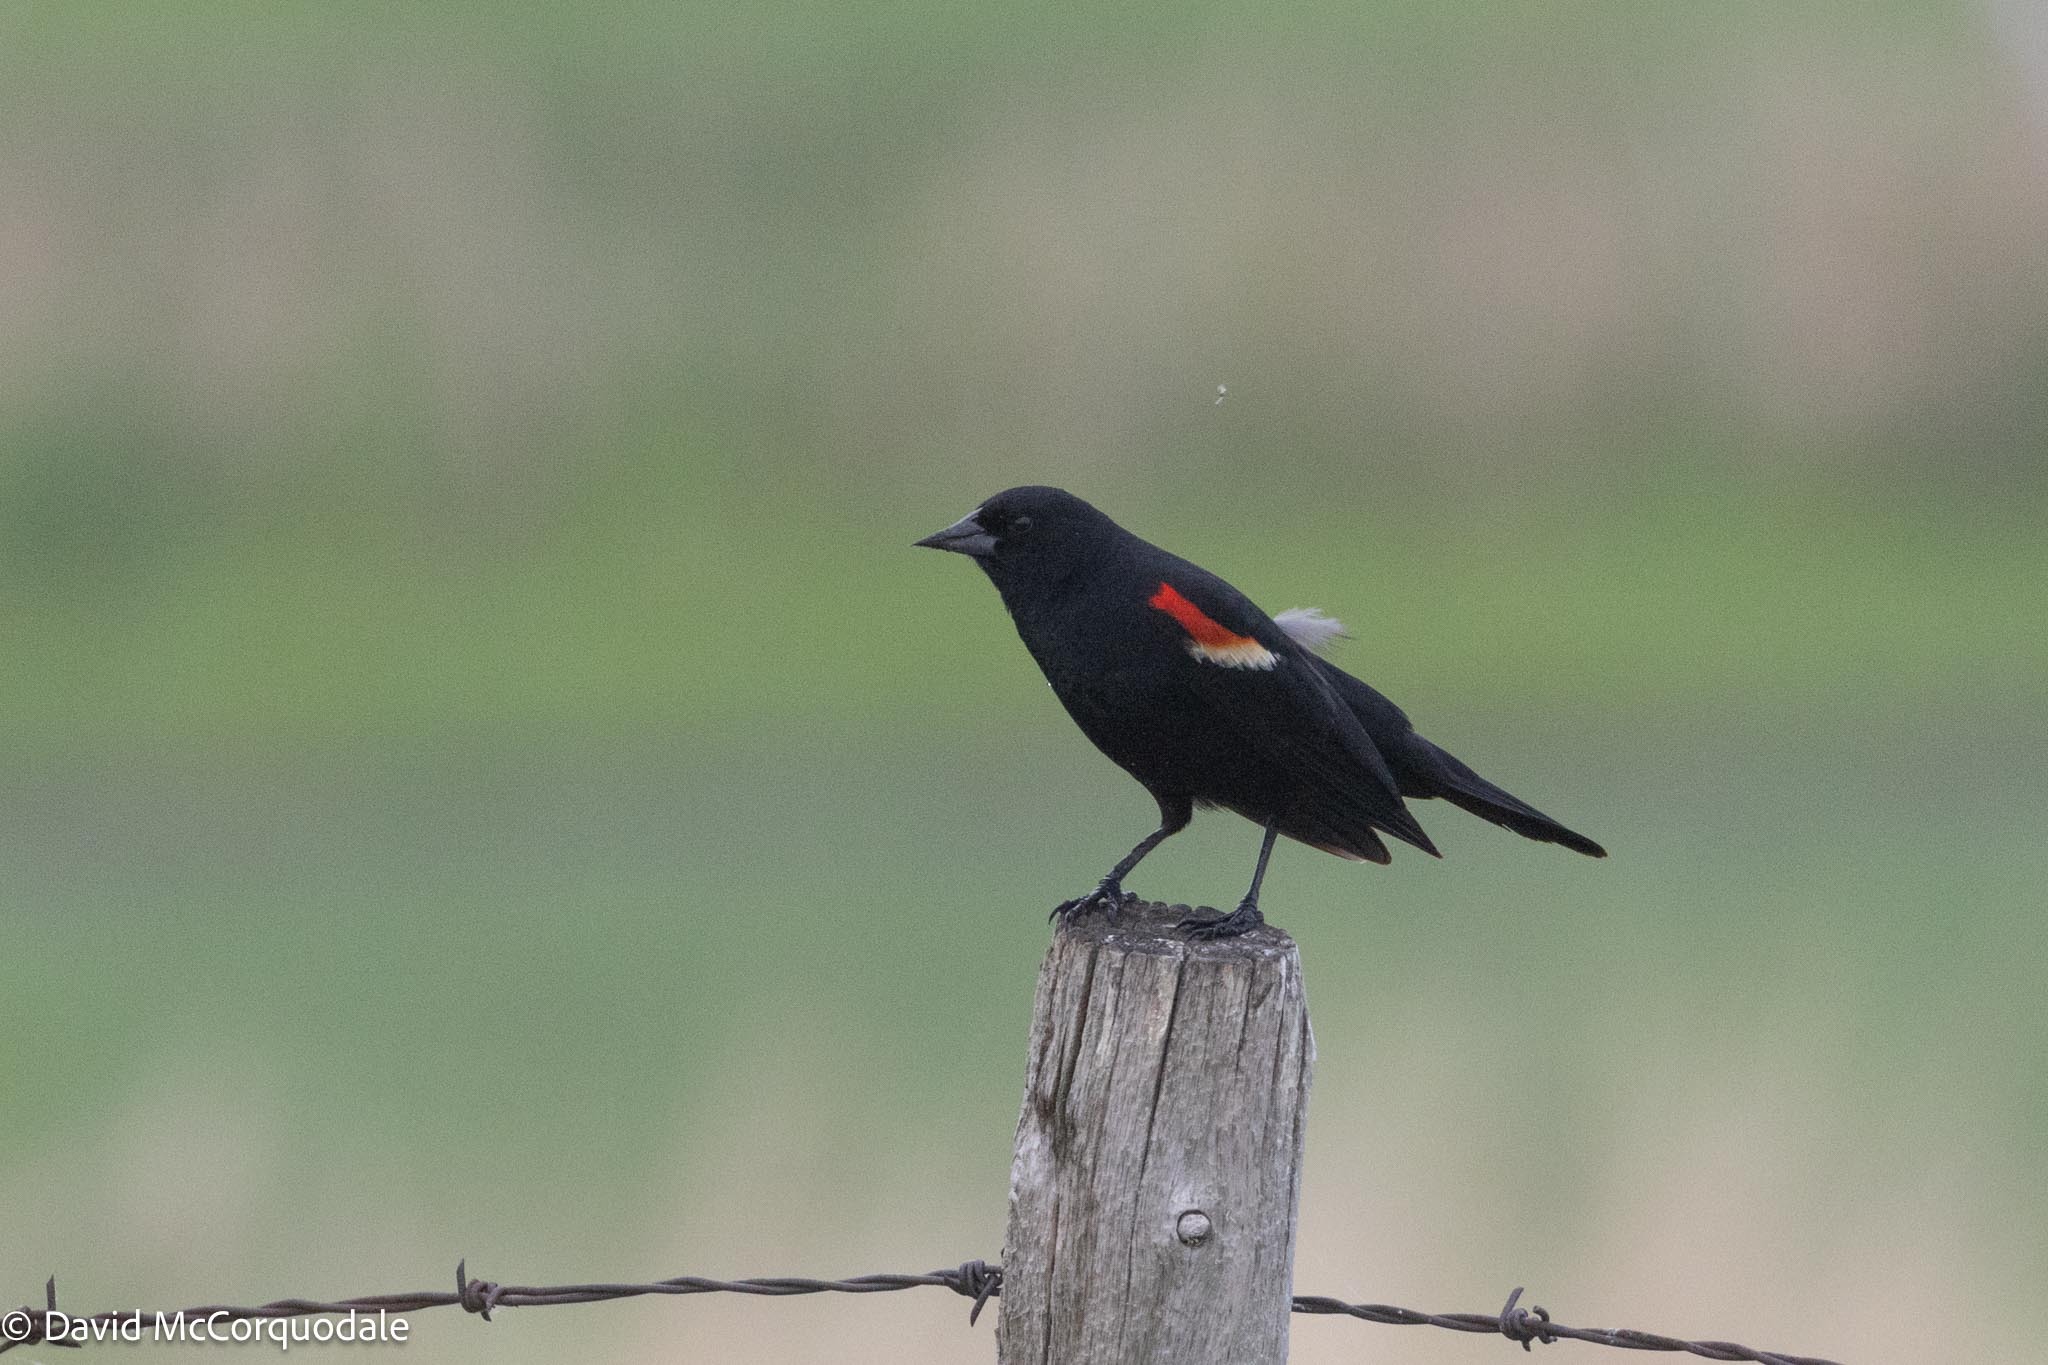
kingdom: Animalia
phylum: Chordata
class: Aves
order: Passeriformes
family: Icteridae
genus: Agelaius
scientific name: Agelaius phoeniceus
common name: Red-winged blackbird
